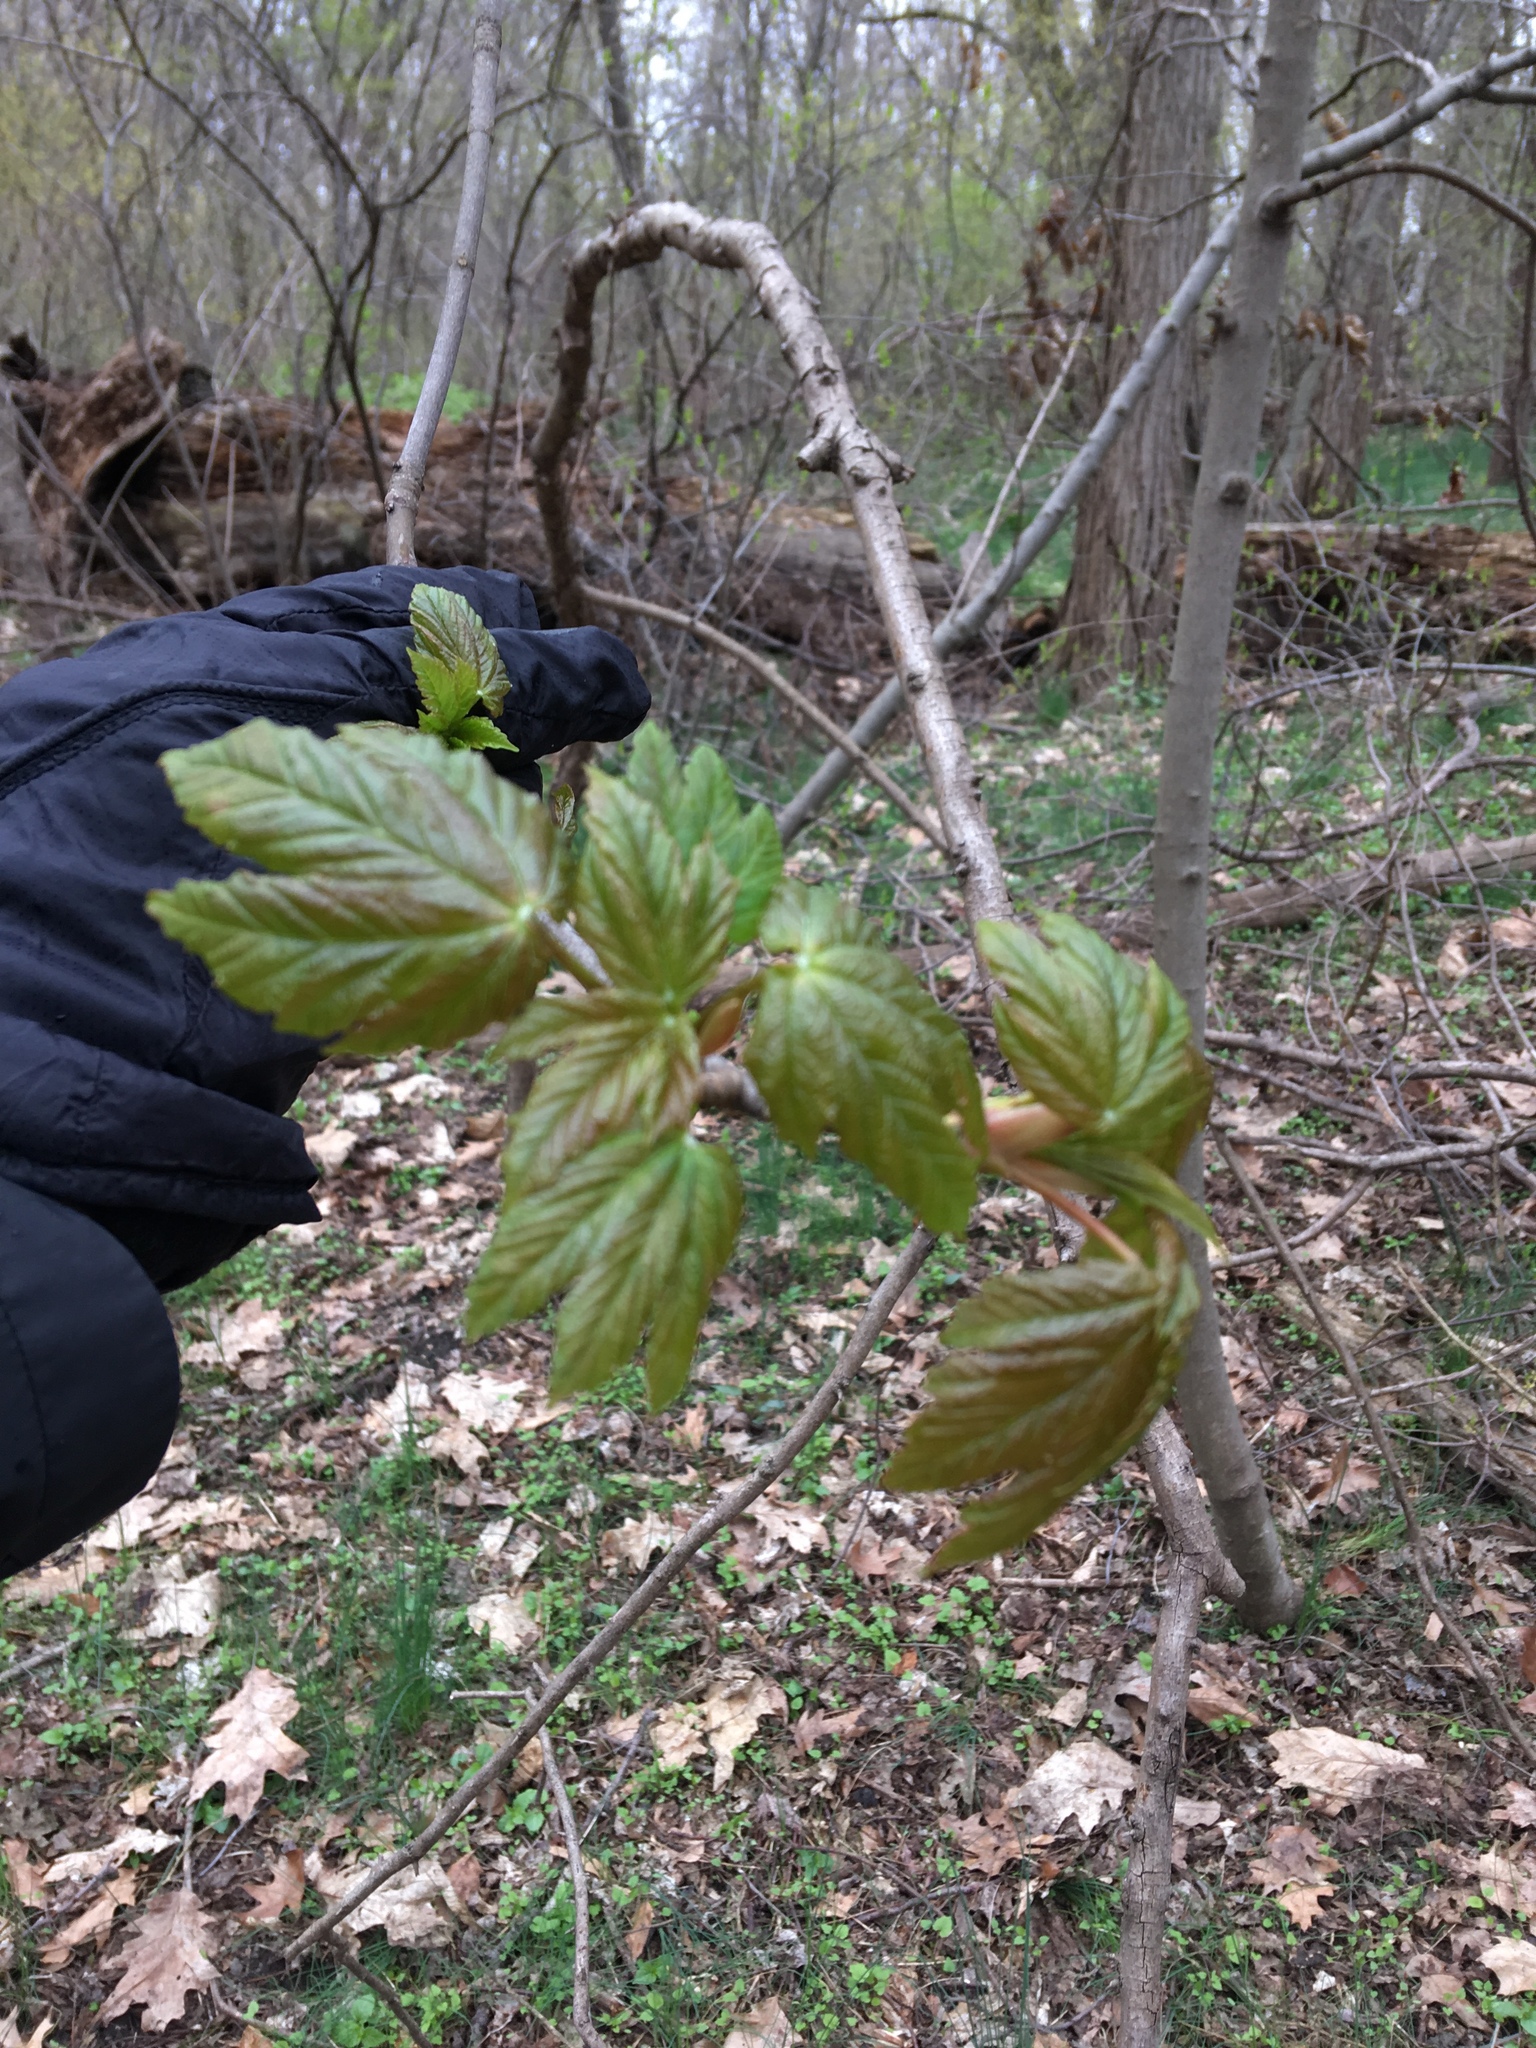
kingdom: Plantae
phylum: Tracheophyta
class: Magnoliopsida
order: Sapindales
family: Sapindaceae
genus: Acer
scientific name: Acer pseudoplatanus
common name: Sycamore
